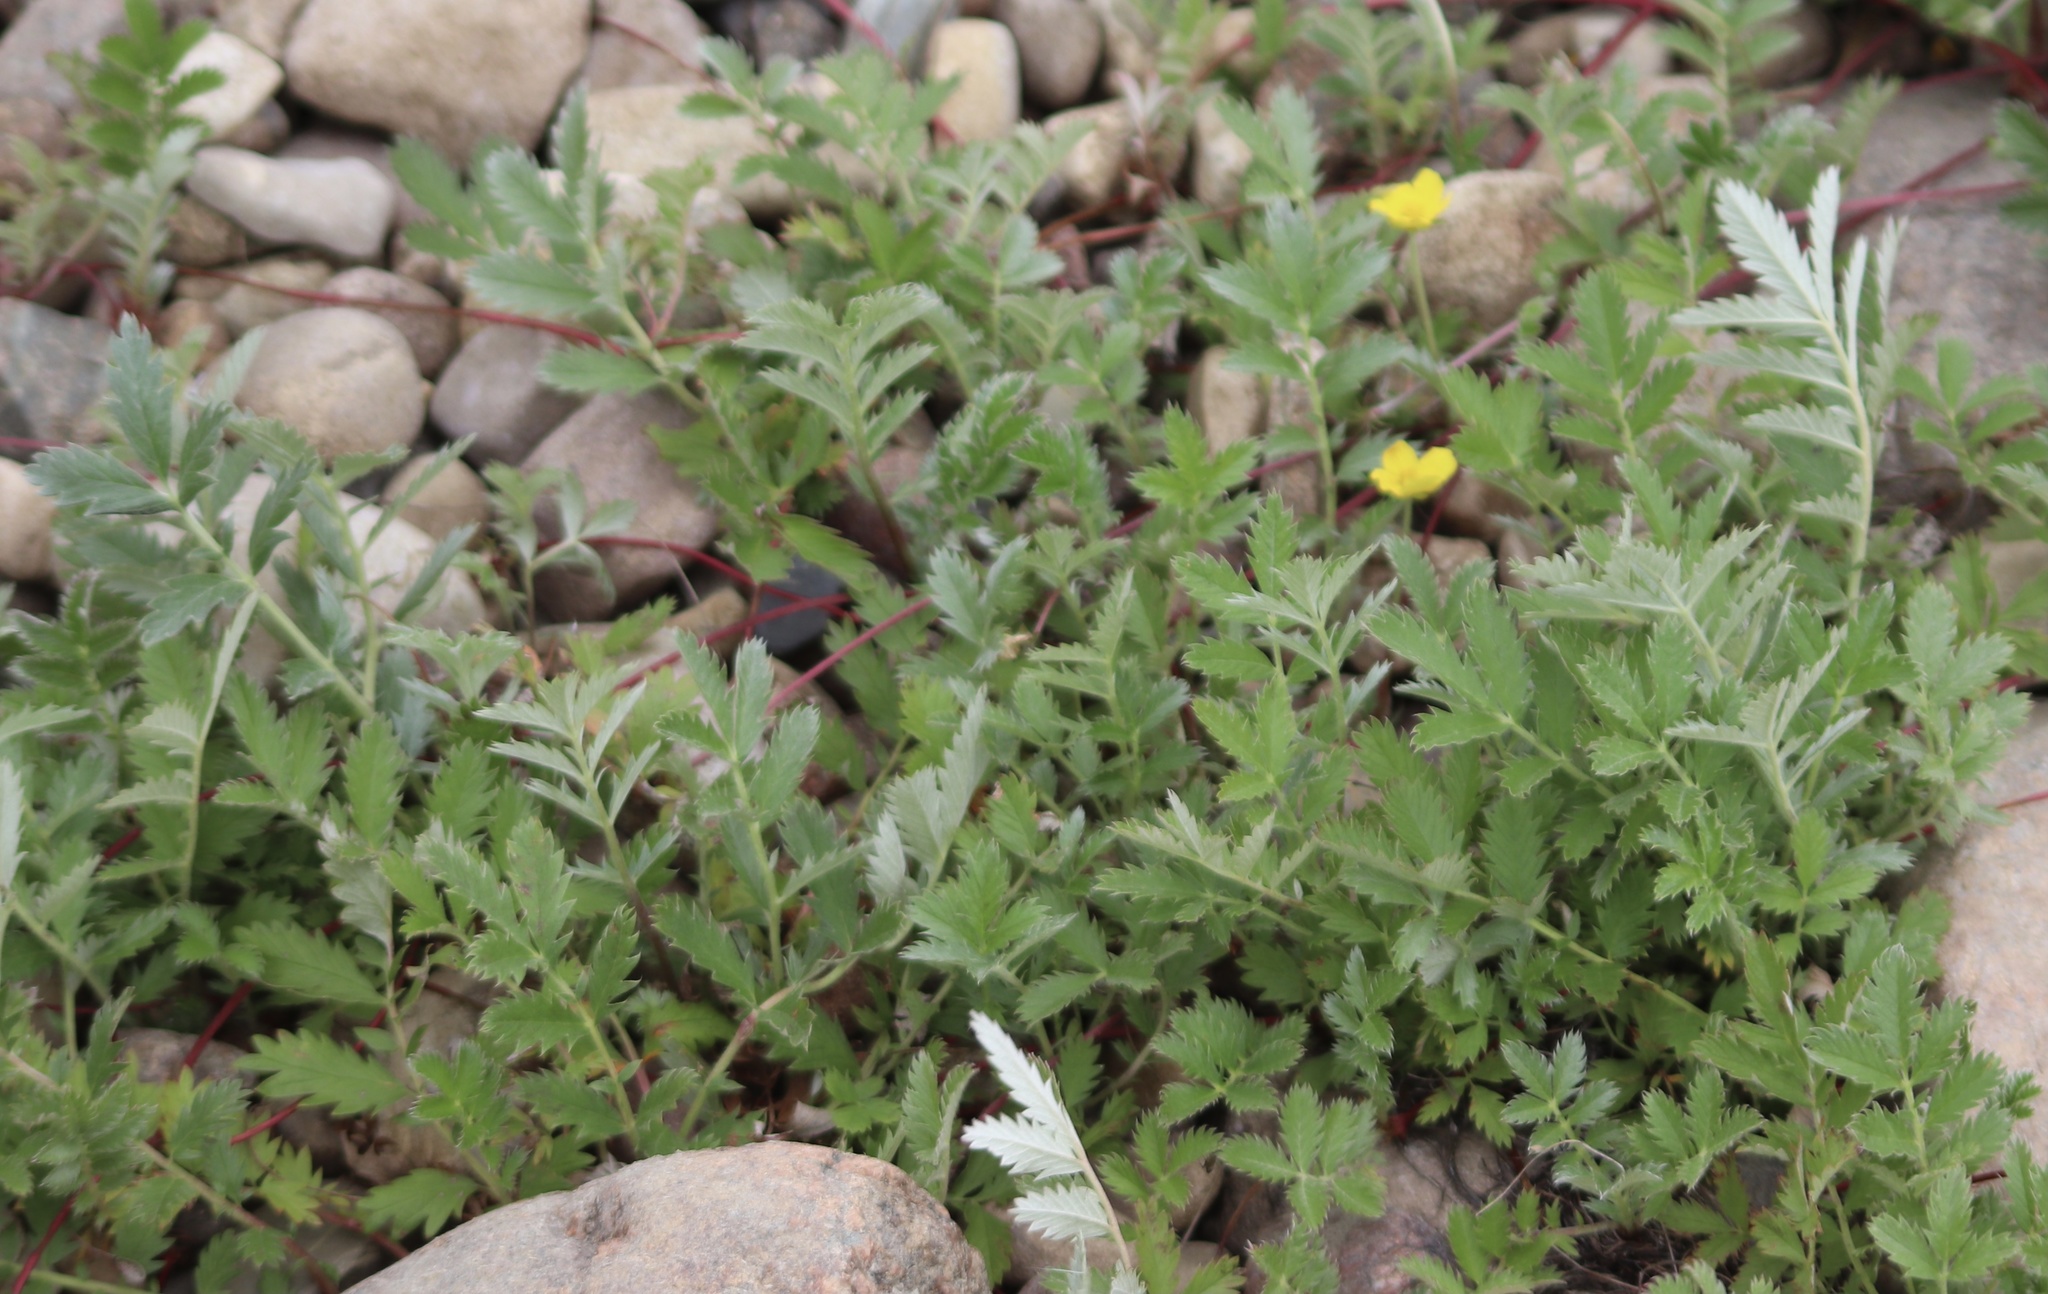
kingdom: Plantae
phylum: Tracheophyta
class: Magnoliopsida
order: Rosales
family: Rosaceae
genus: Argentina
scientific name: Argentina anserina
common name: Common silverweed
